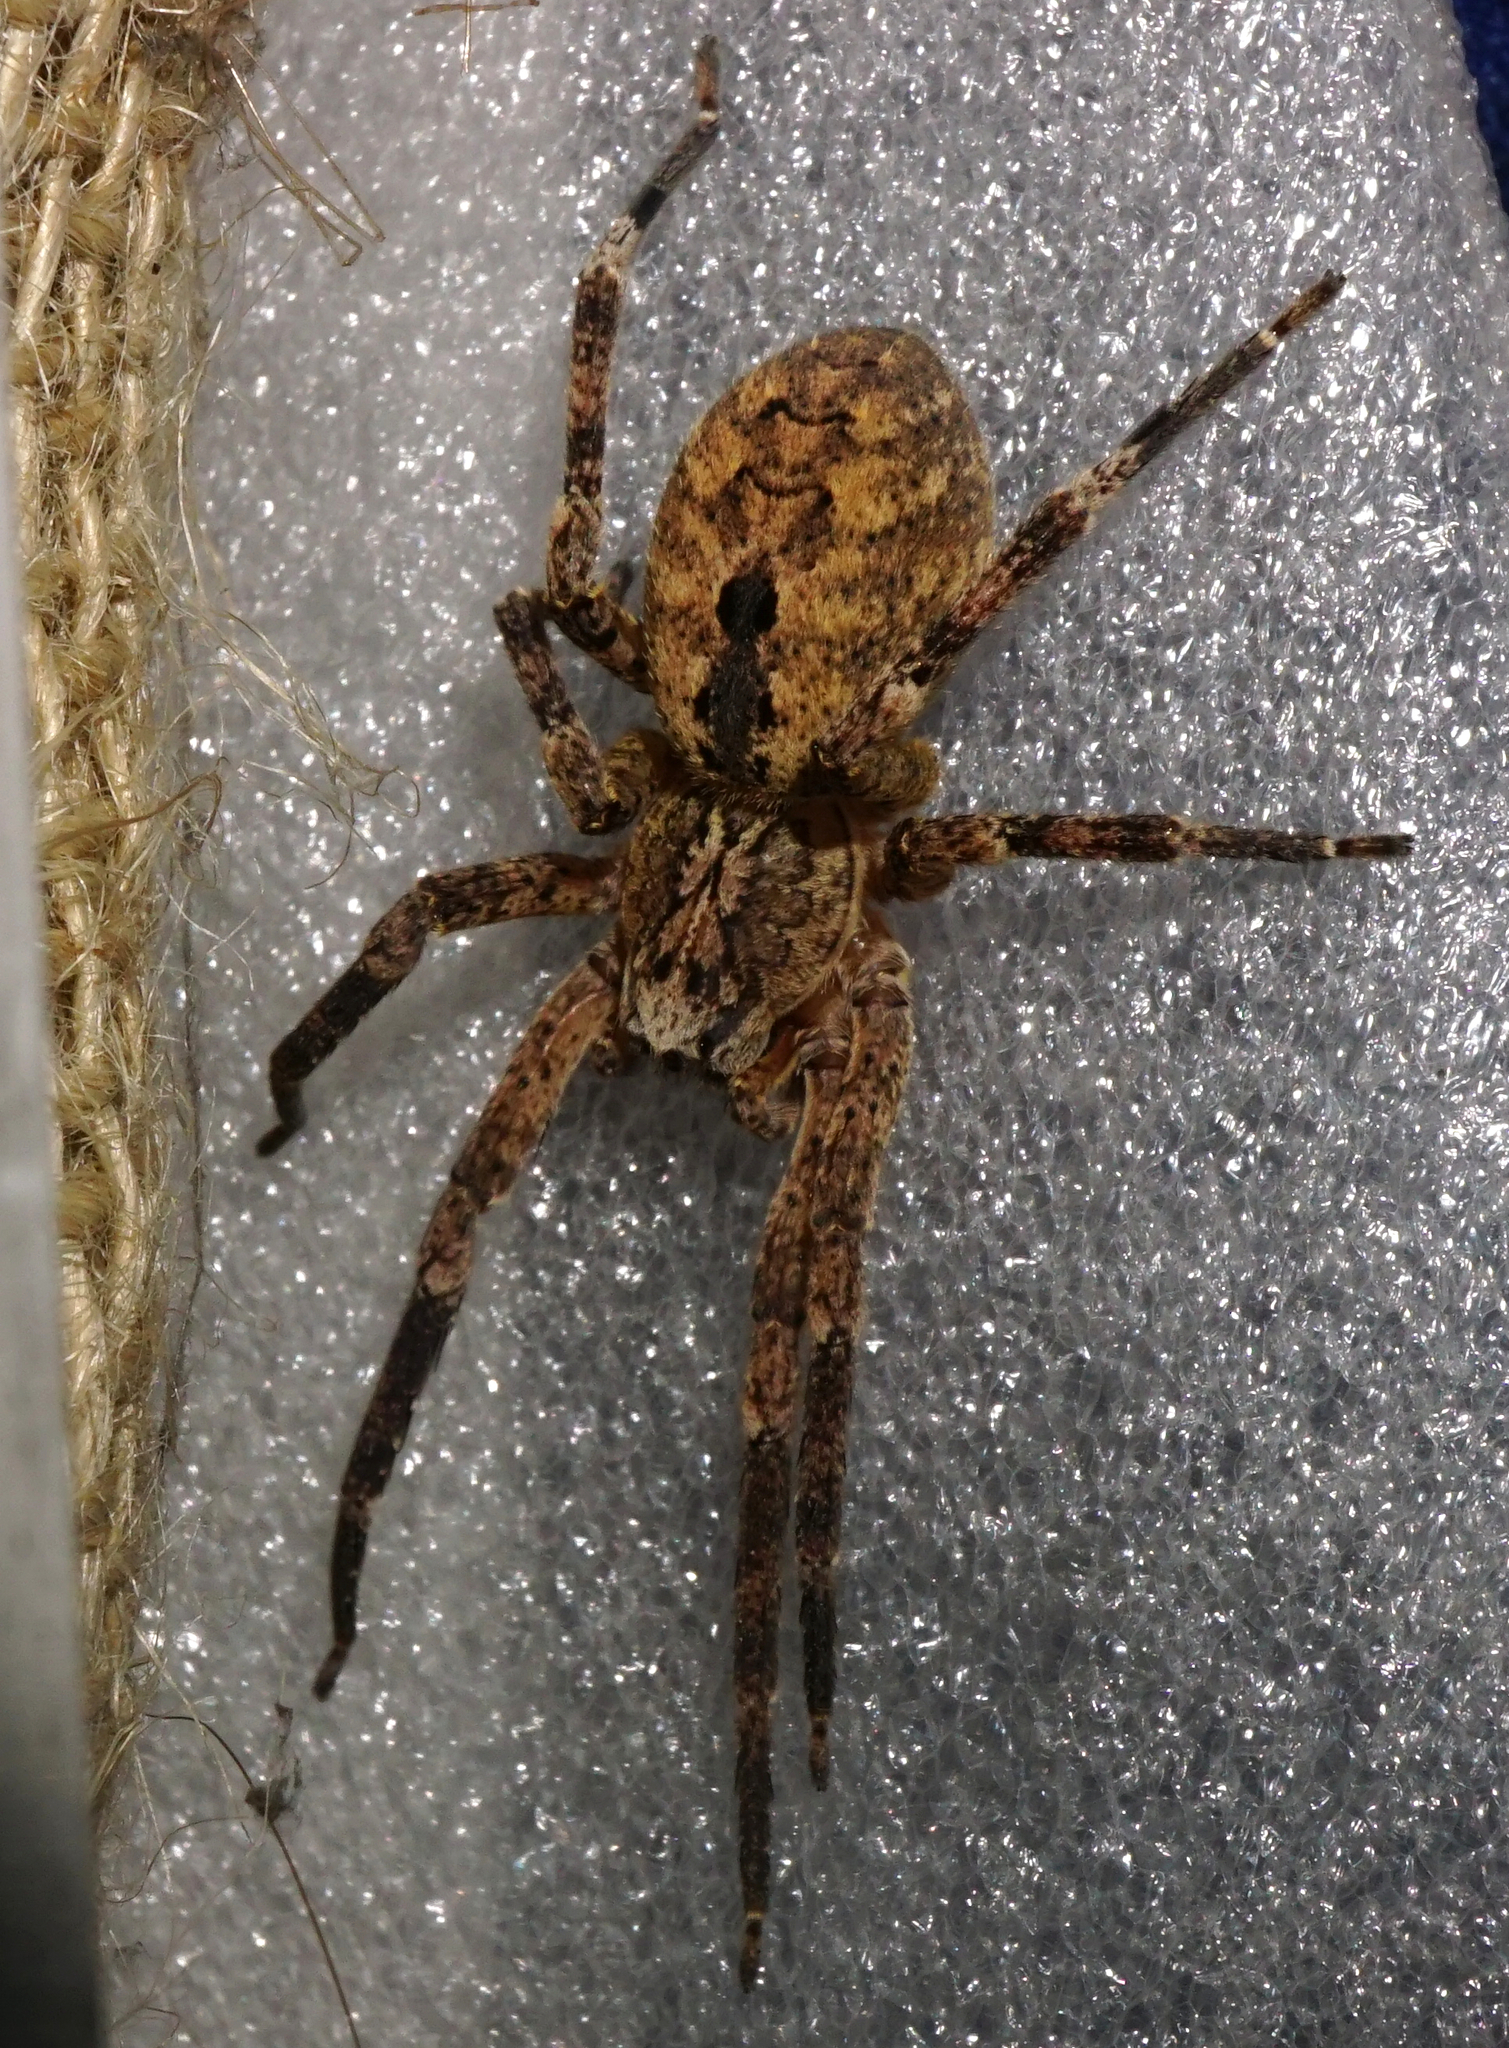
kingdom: Animalia
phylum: Arthropoda
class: Arachnida
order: Araneae
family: Zoropsidae
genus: Zoropsis
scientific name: Zoropsis spinimana
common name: Zoropsid spider
